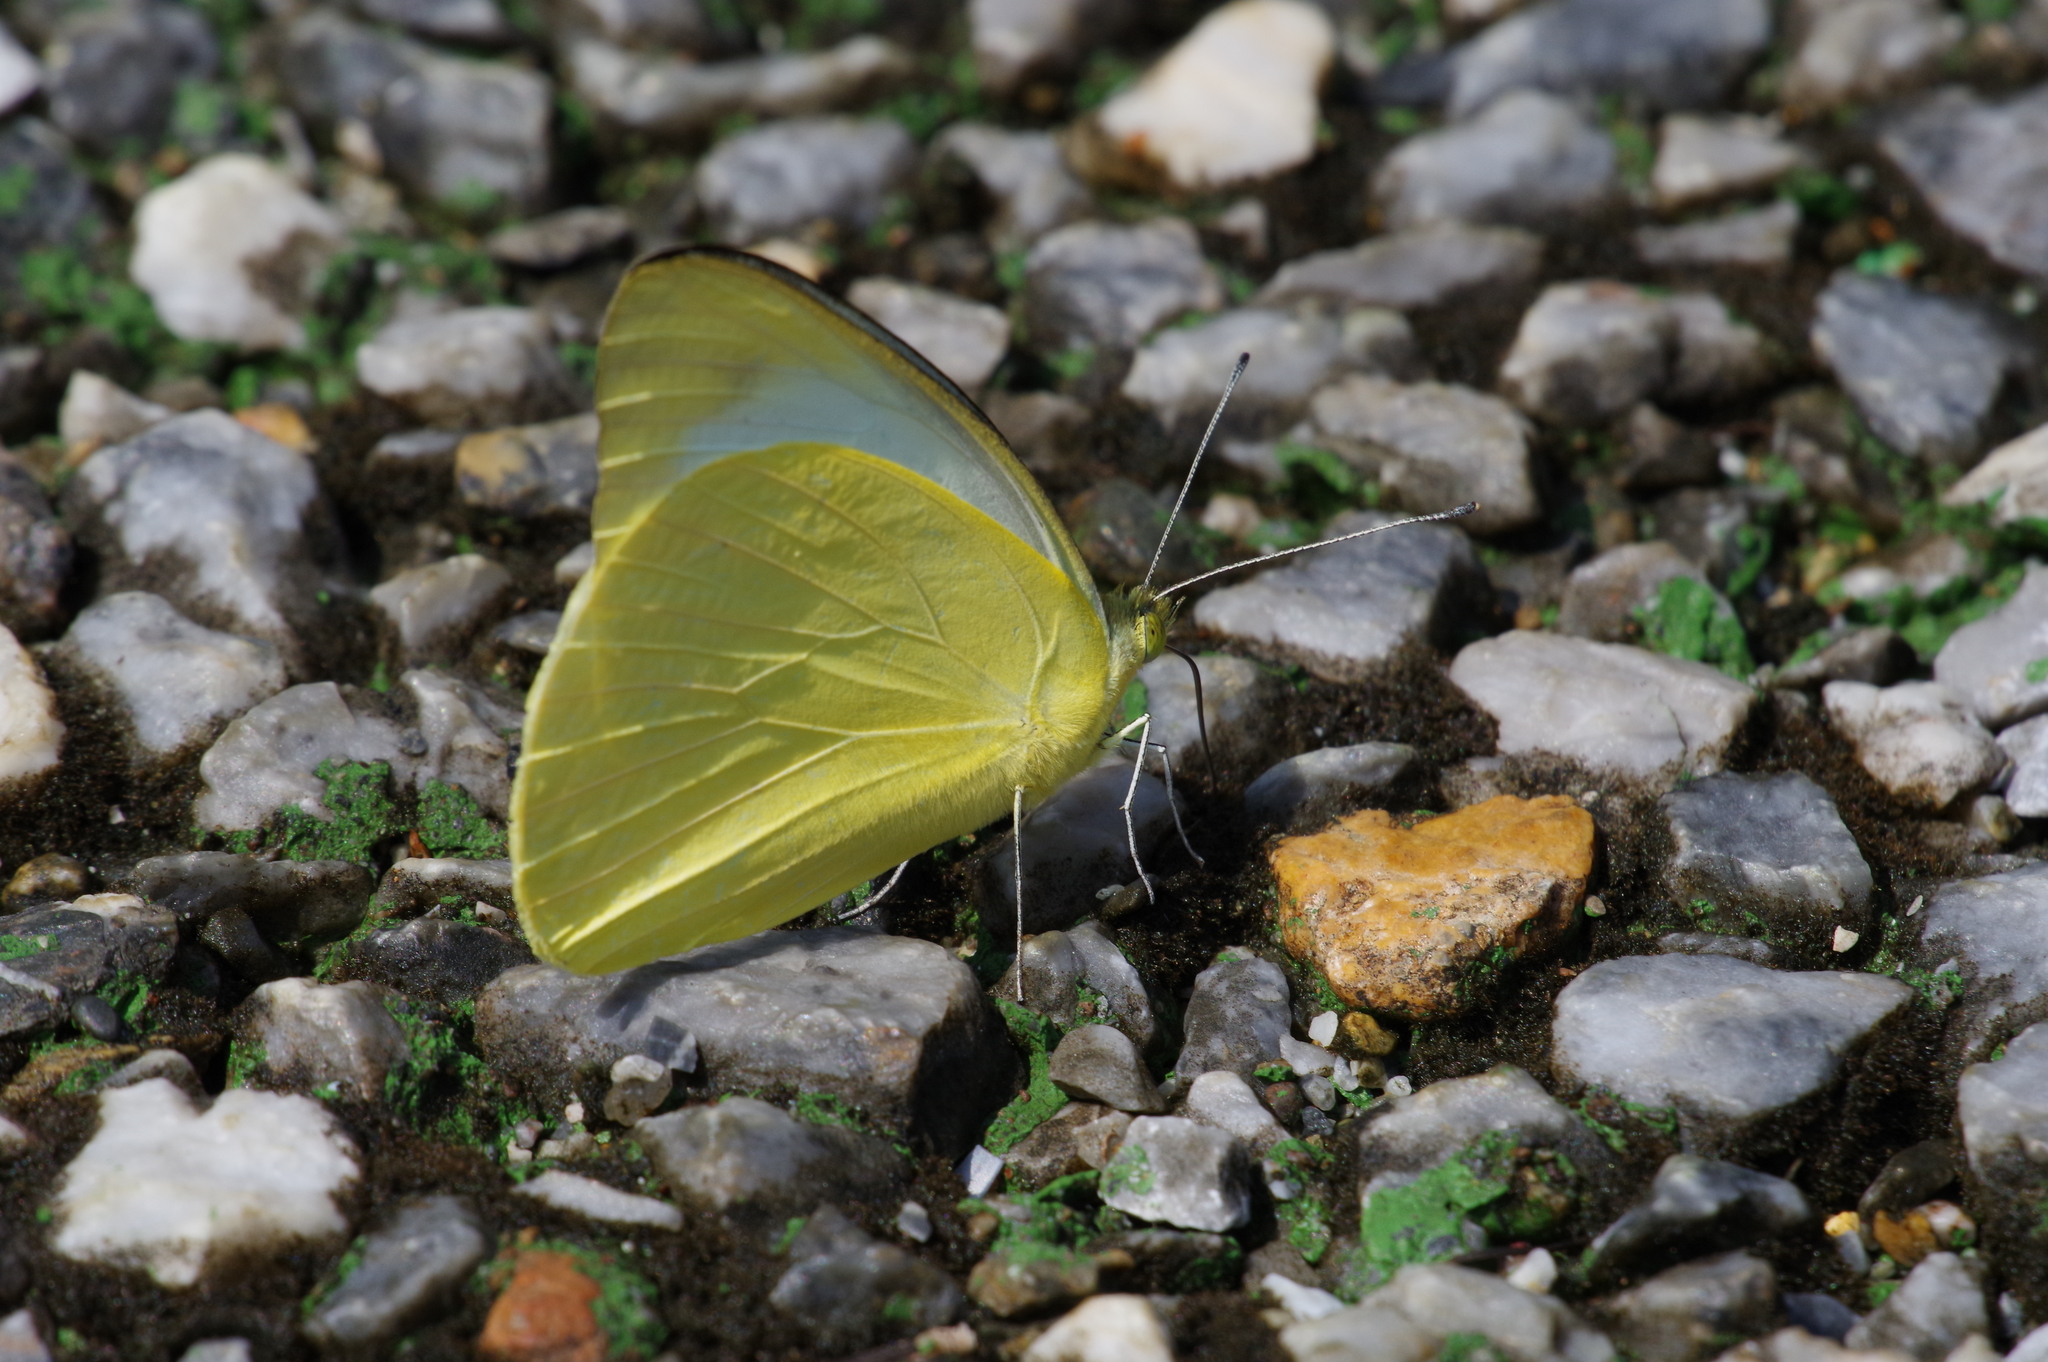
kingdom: Animalia
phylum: Arthropoda
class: Insecta
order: Lepidoptera
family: Pieridae
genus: Appias
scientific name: Appias paulina
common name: Ceylon lesser albatross
